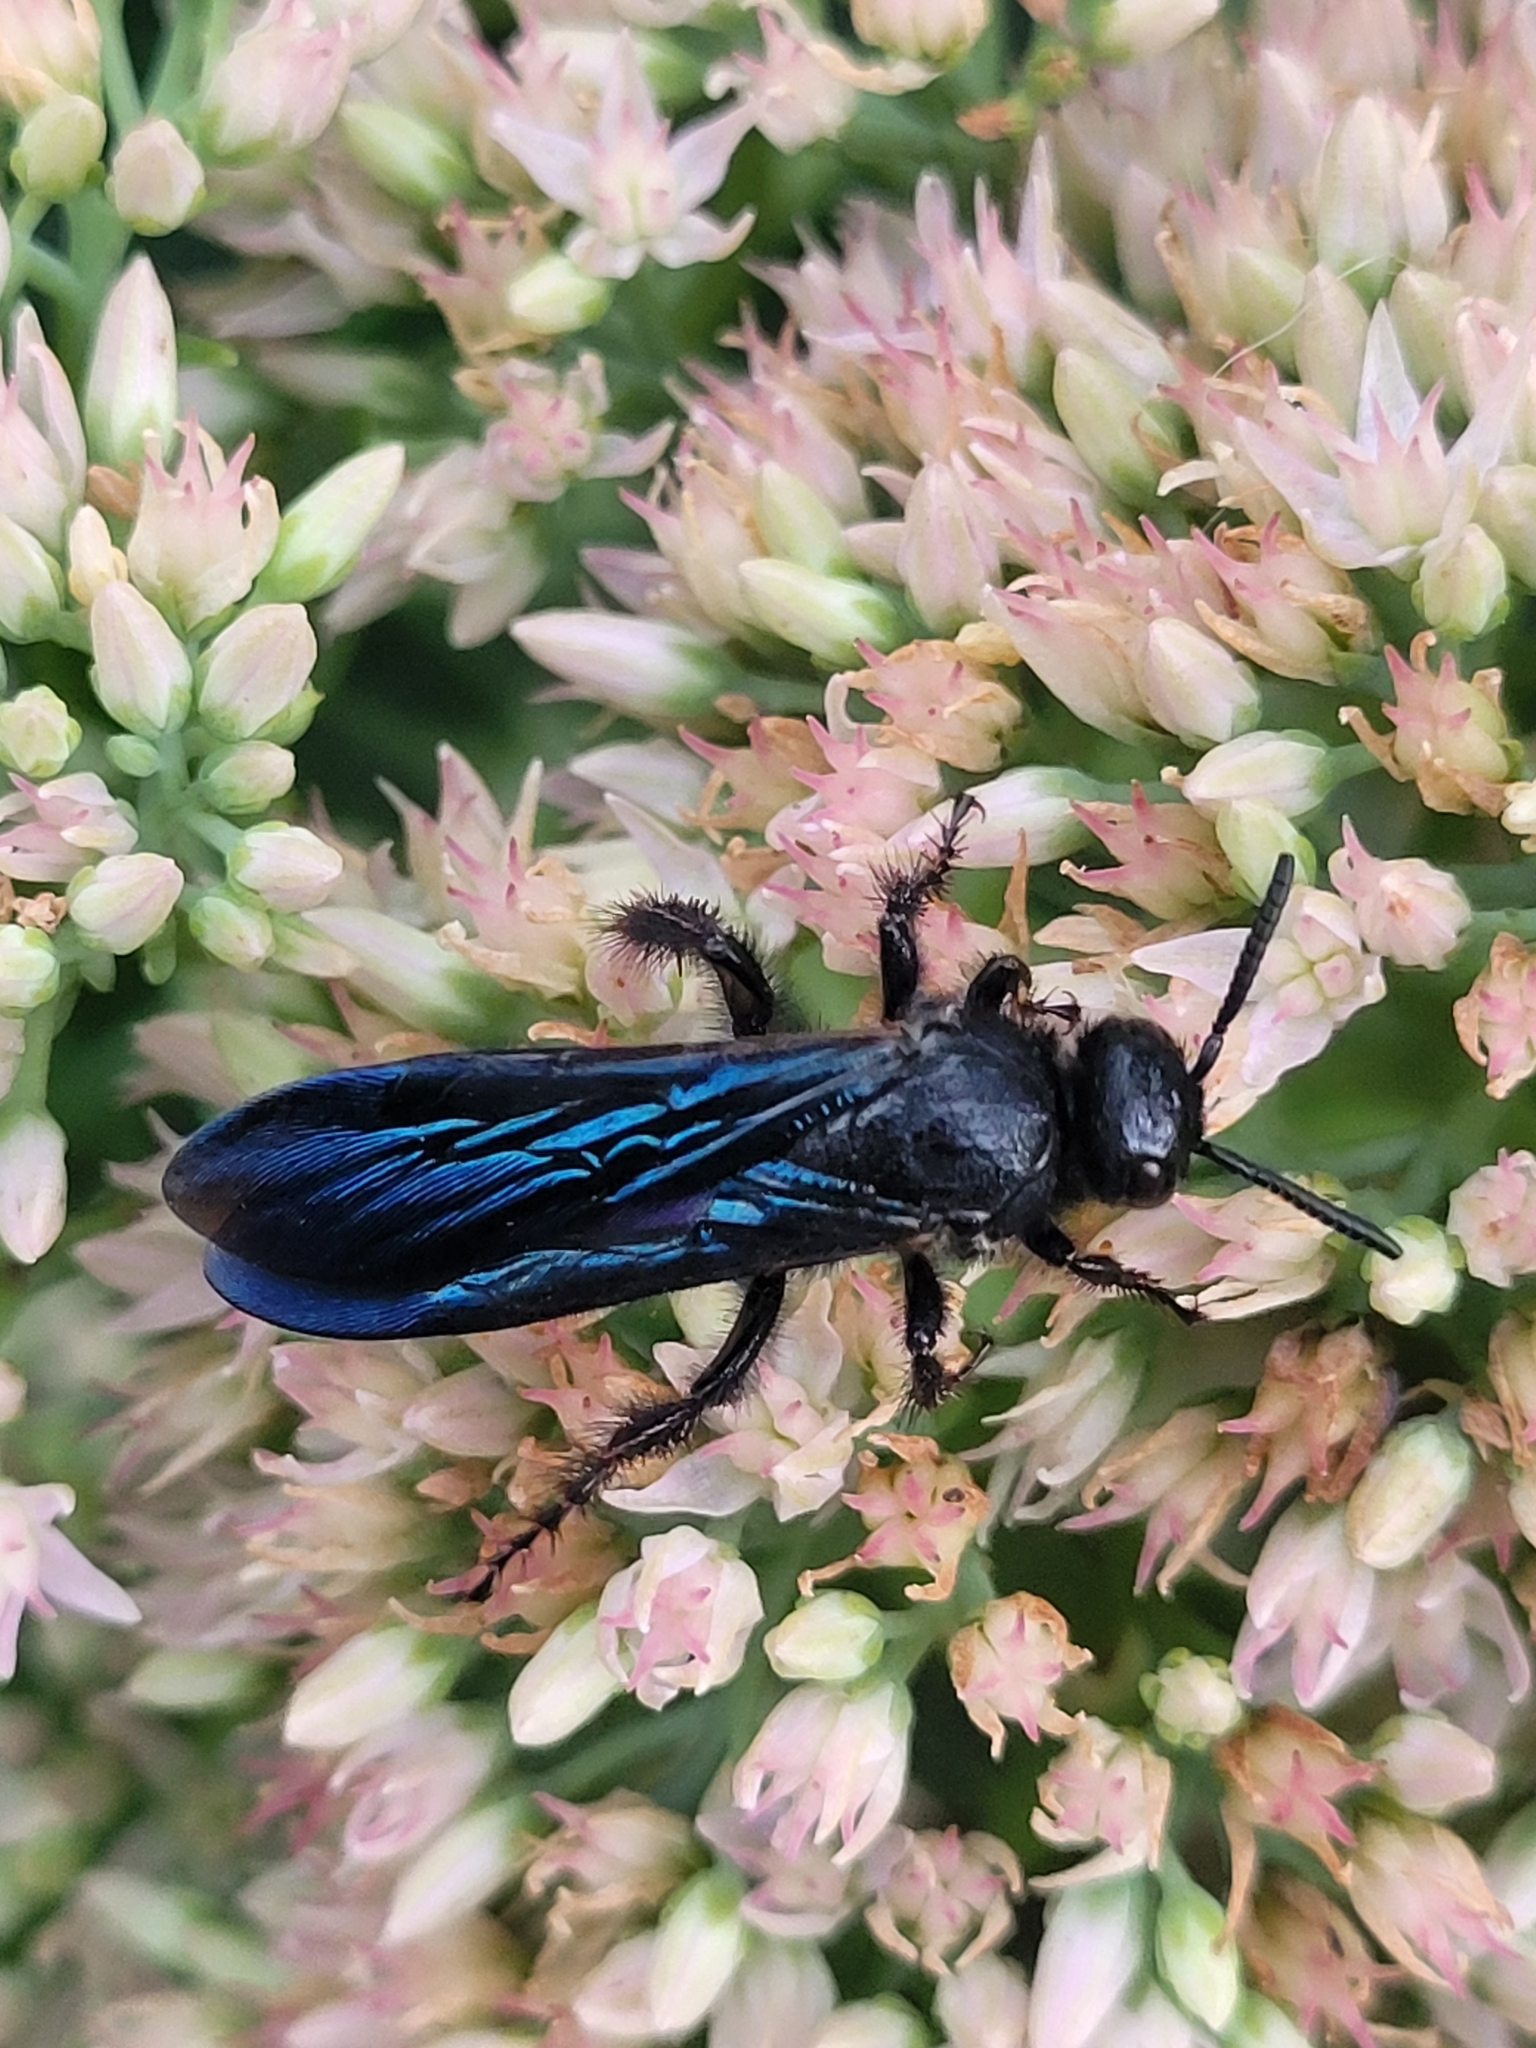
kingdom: Animalia
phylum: Arthropoda
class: Insecta
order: Hymenoptera
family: Scoliidae
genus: Scolia
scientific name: Scolia dubia
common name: Blue-winged scoliid wasp
